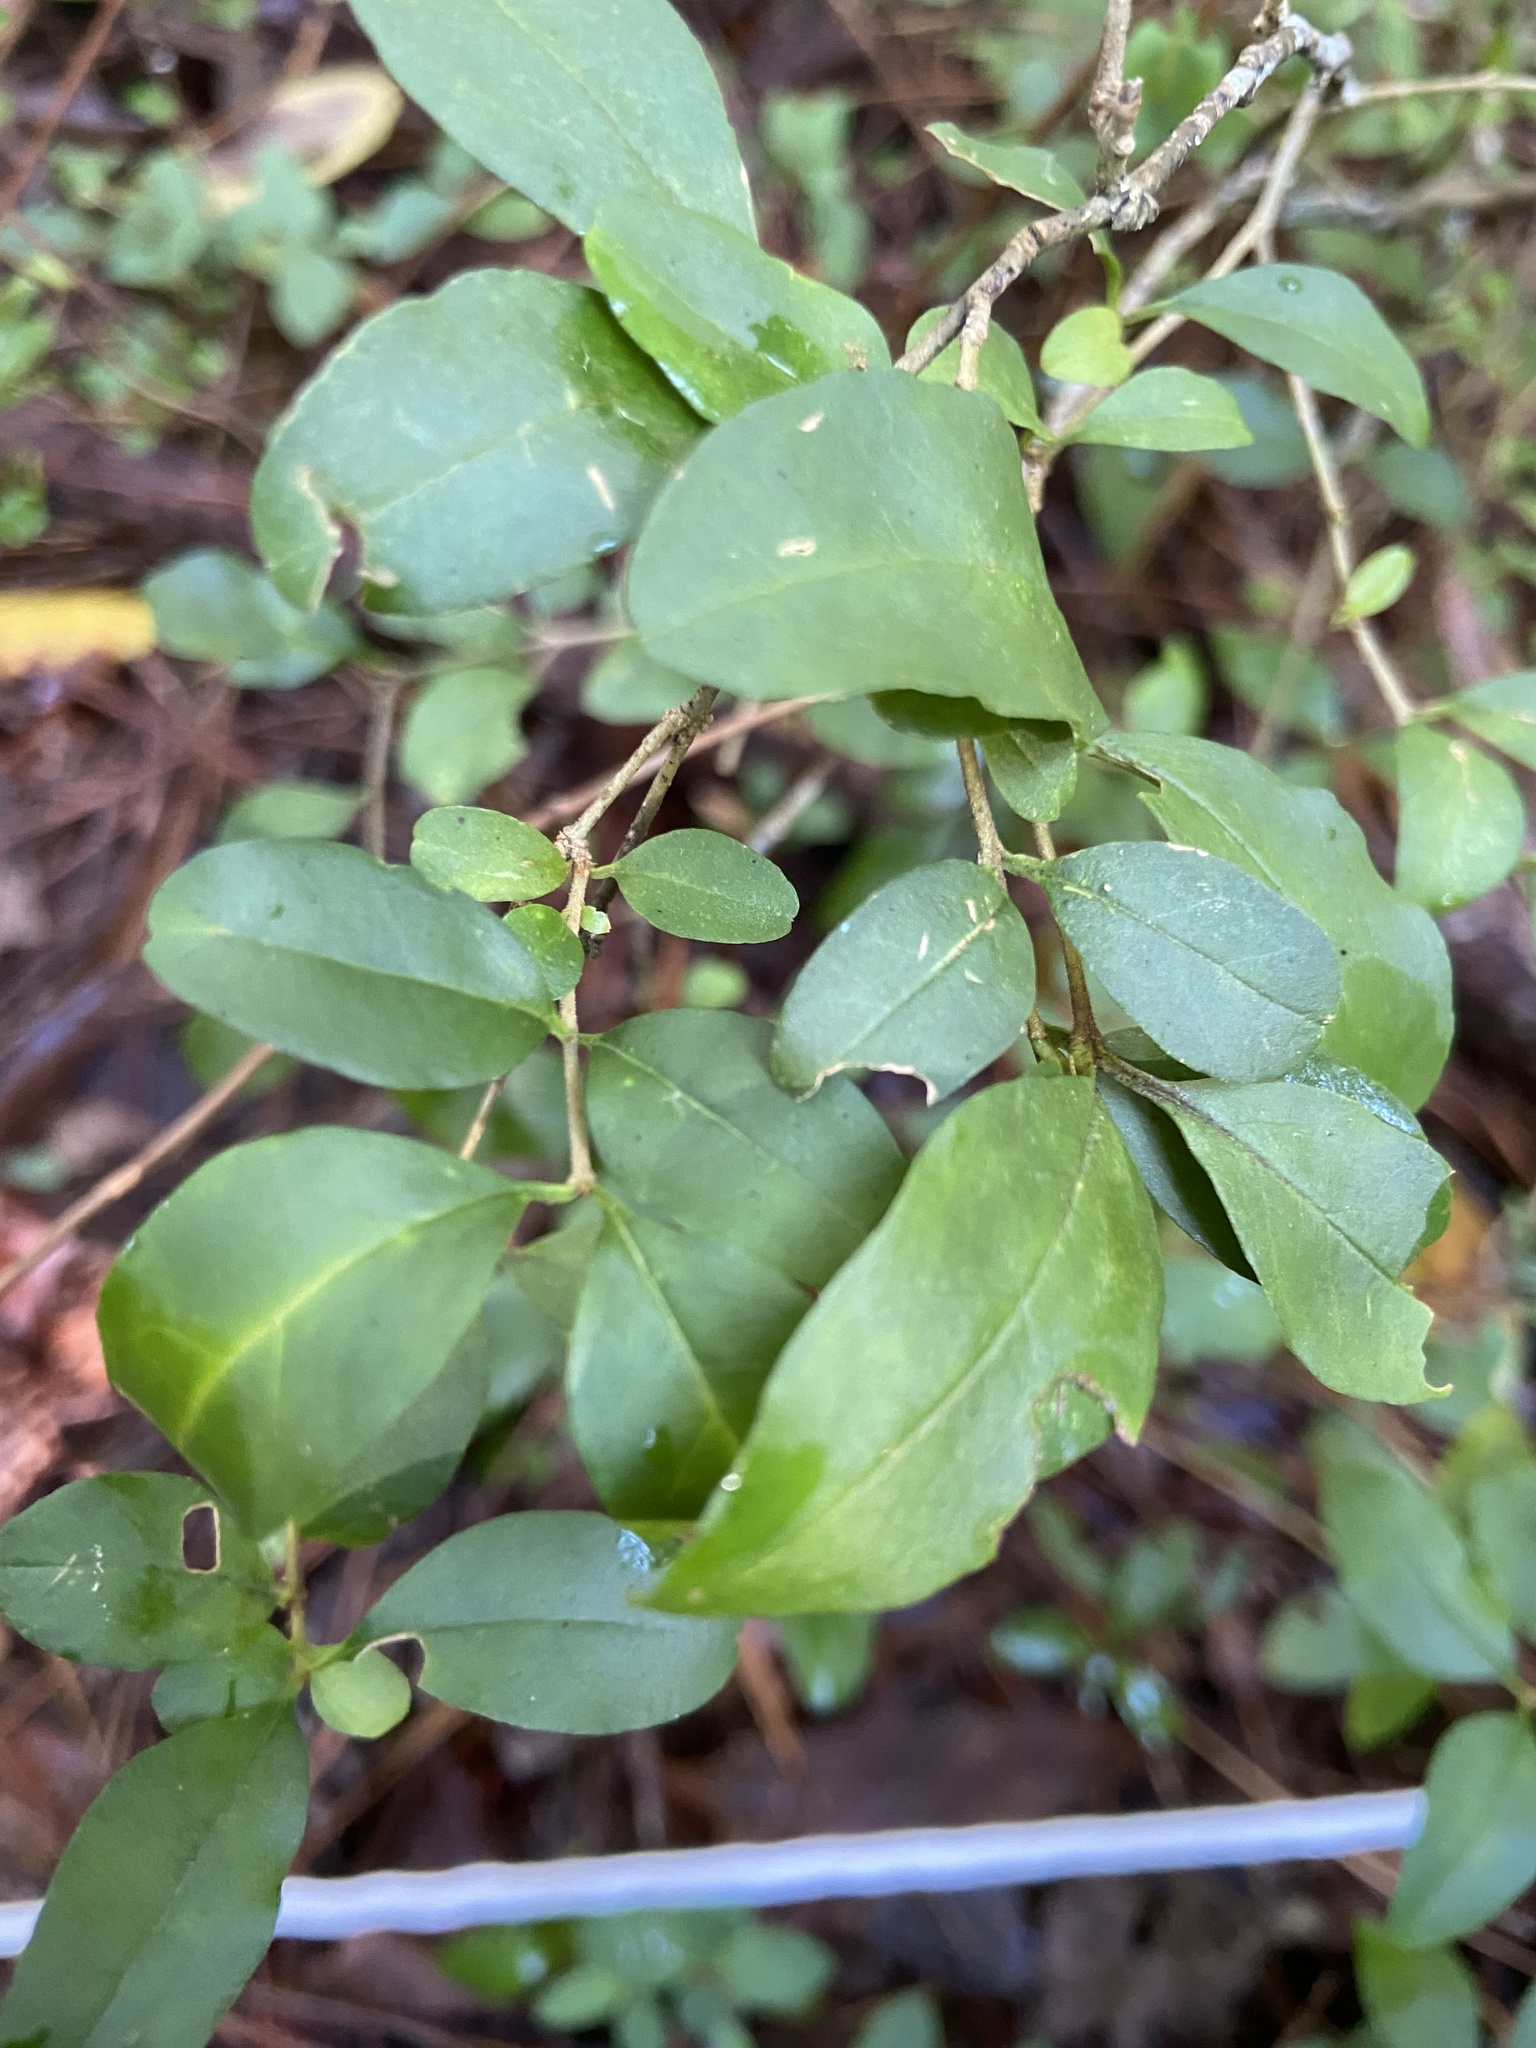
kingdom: Plantae
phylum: Tracheophyta
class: Magnoliopsida
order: Lamiales
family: Oleaceae
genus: Ligustrum
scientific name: Ligustrum sinense
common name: Chinese privet
